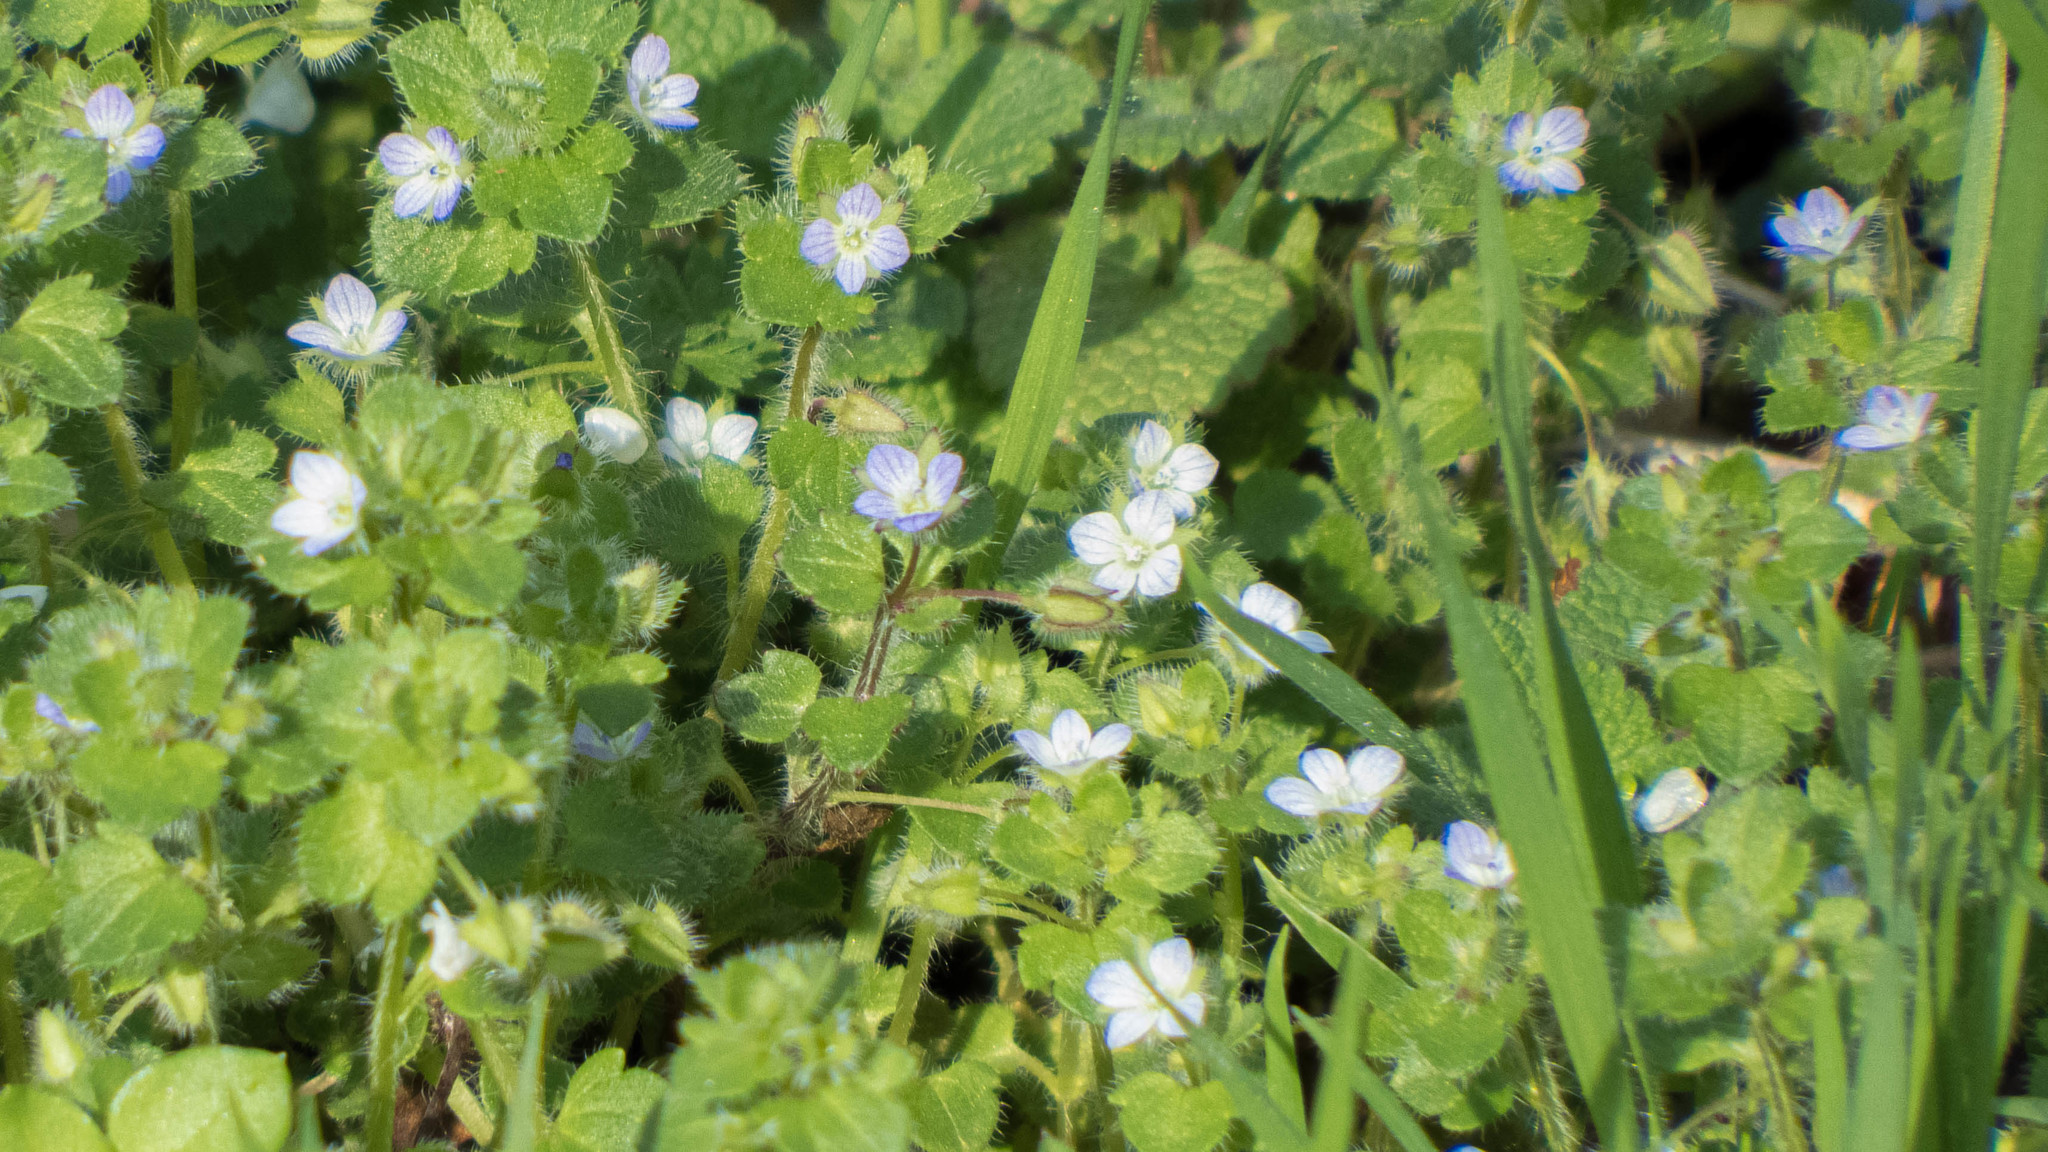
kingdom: Plantae
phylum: Tracheophyta
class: Magnoliopsida
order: Lamiales
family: Plantaginaceae
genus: Veronica
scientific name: Veronica hederifolia
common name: Ivy-leaved speedwell
